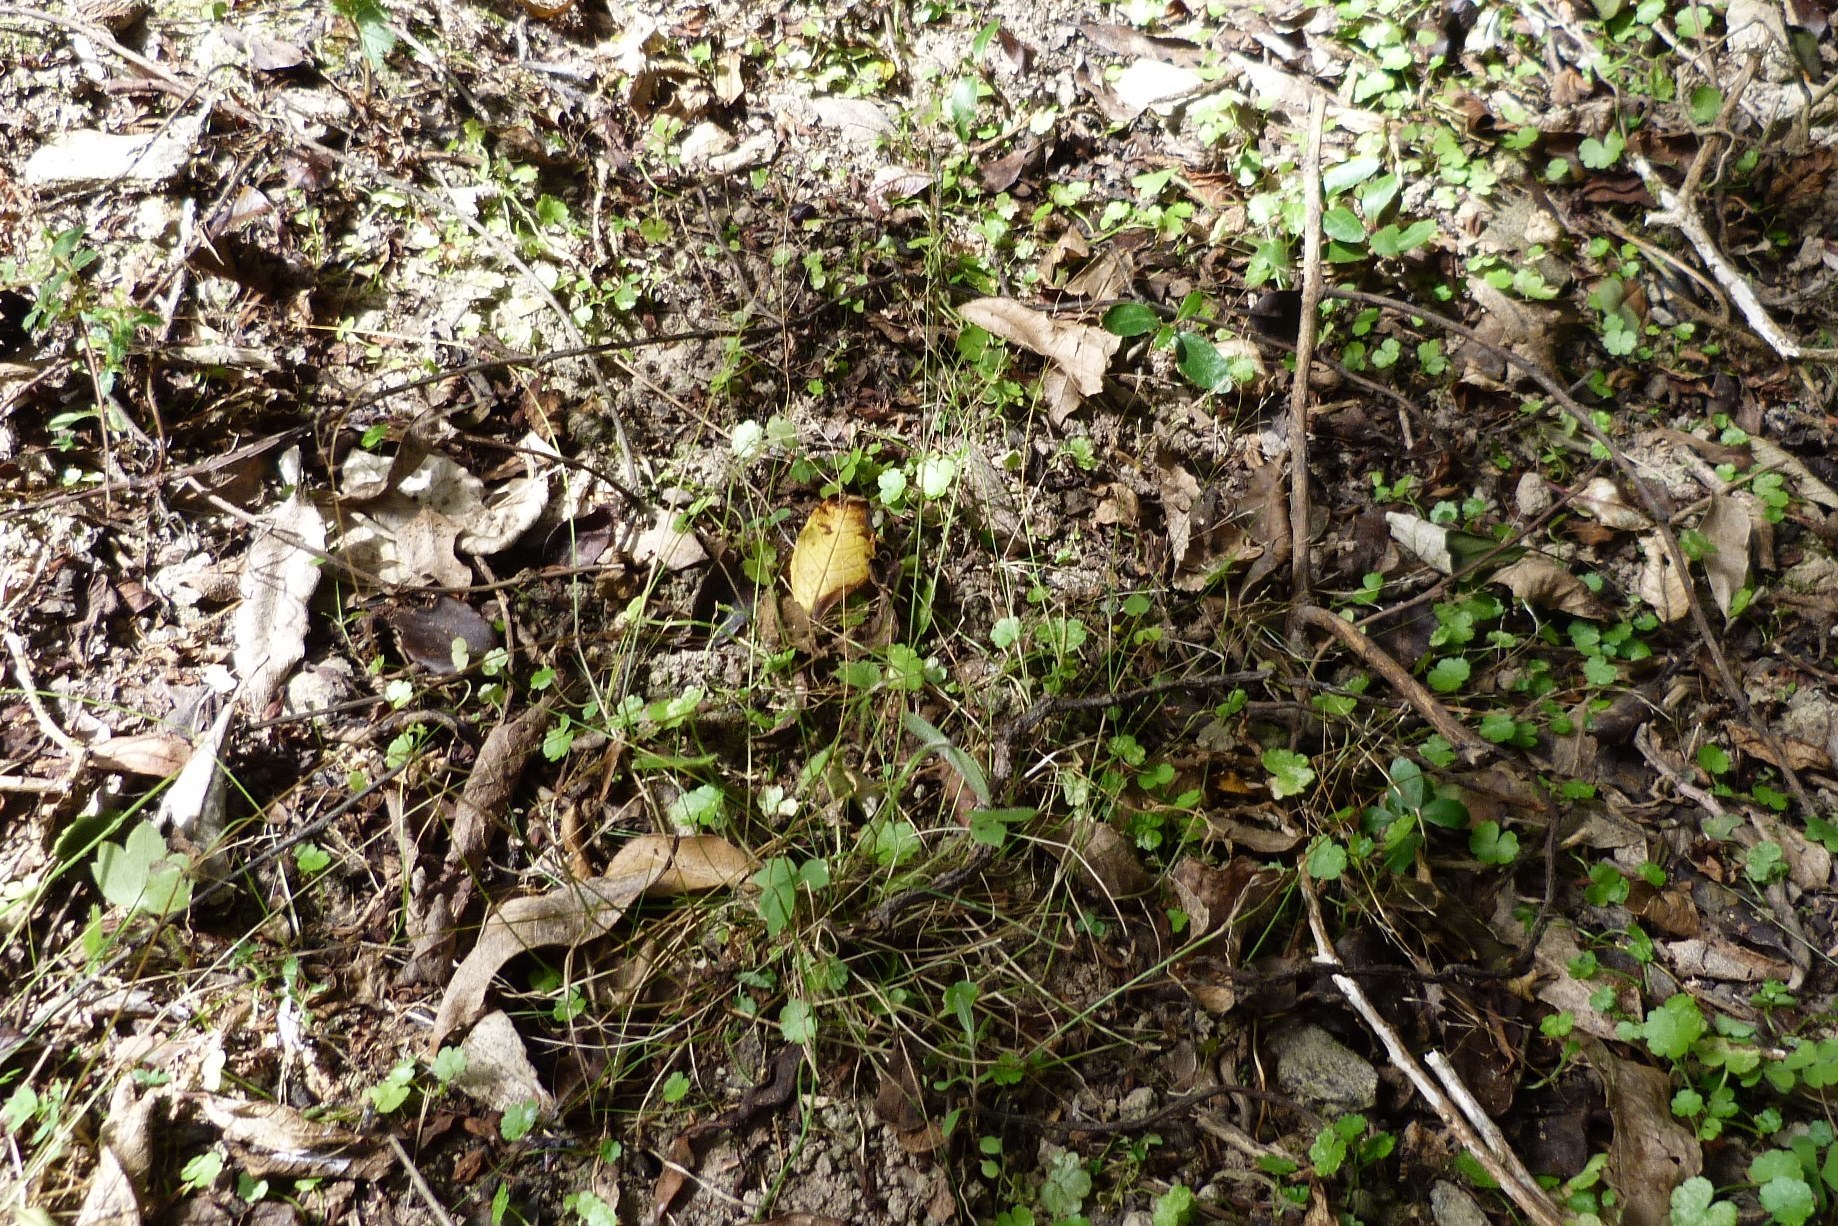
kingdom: Plantae
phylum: Tracheophyta
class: Liliopsida
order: Poales
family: Poaceae
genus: Poa
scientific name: Poa imbecilla
